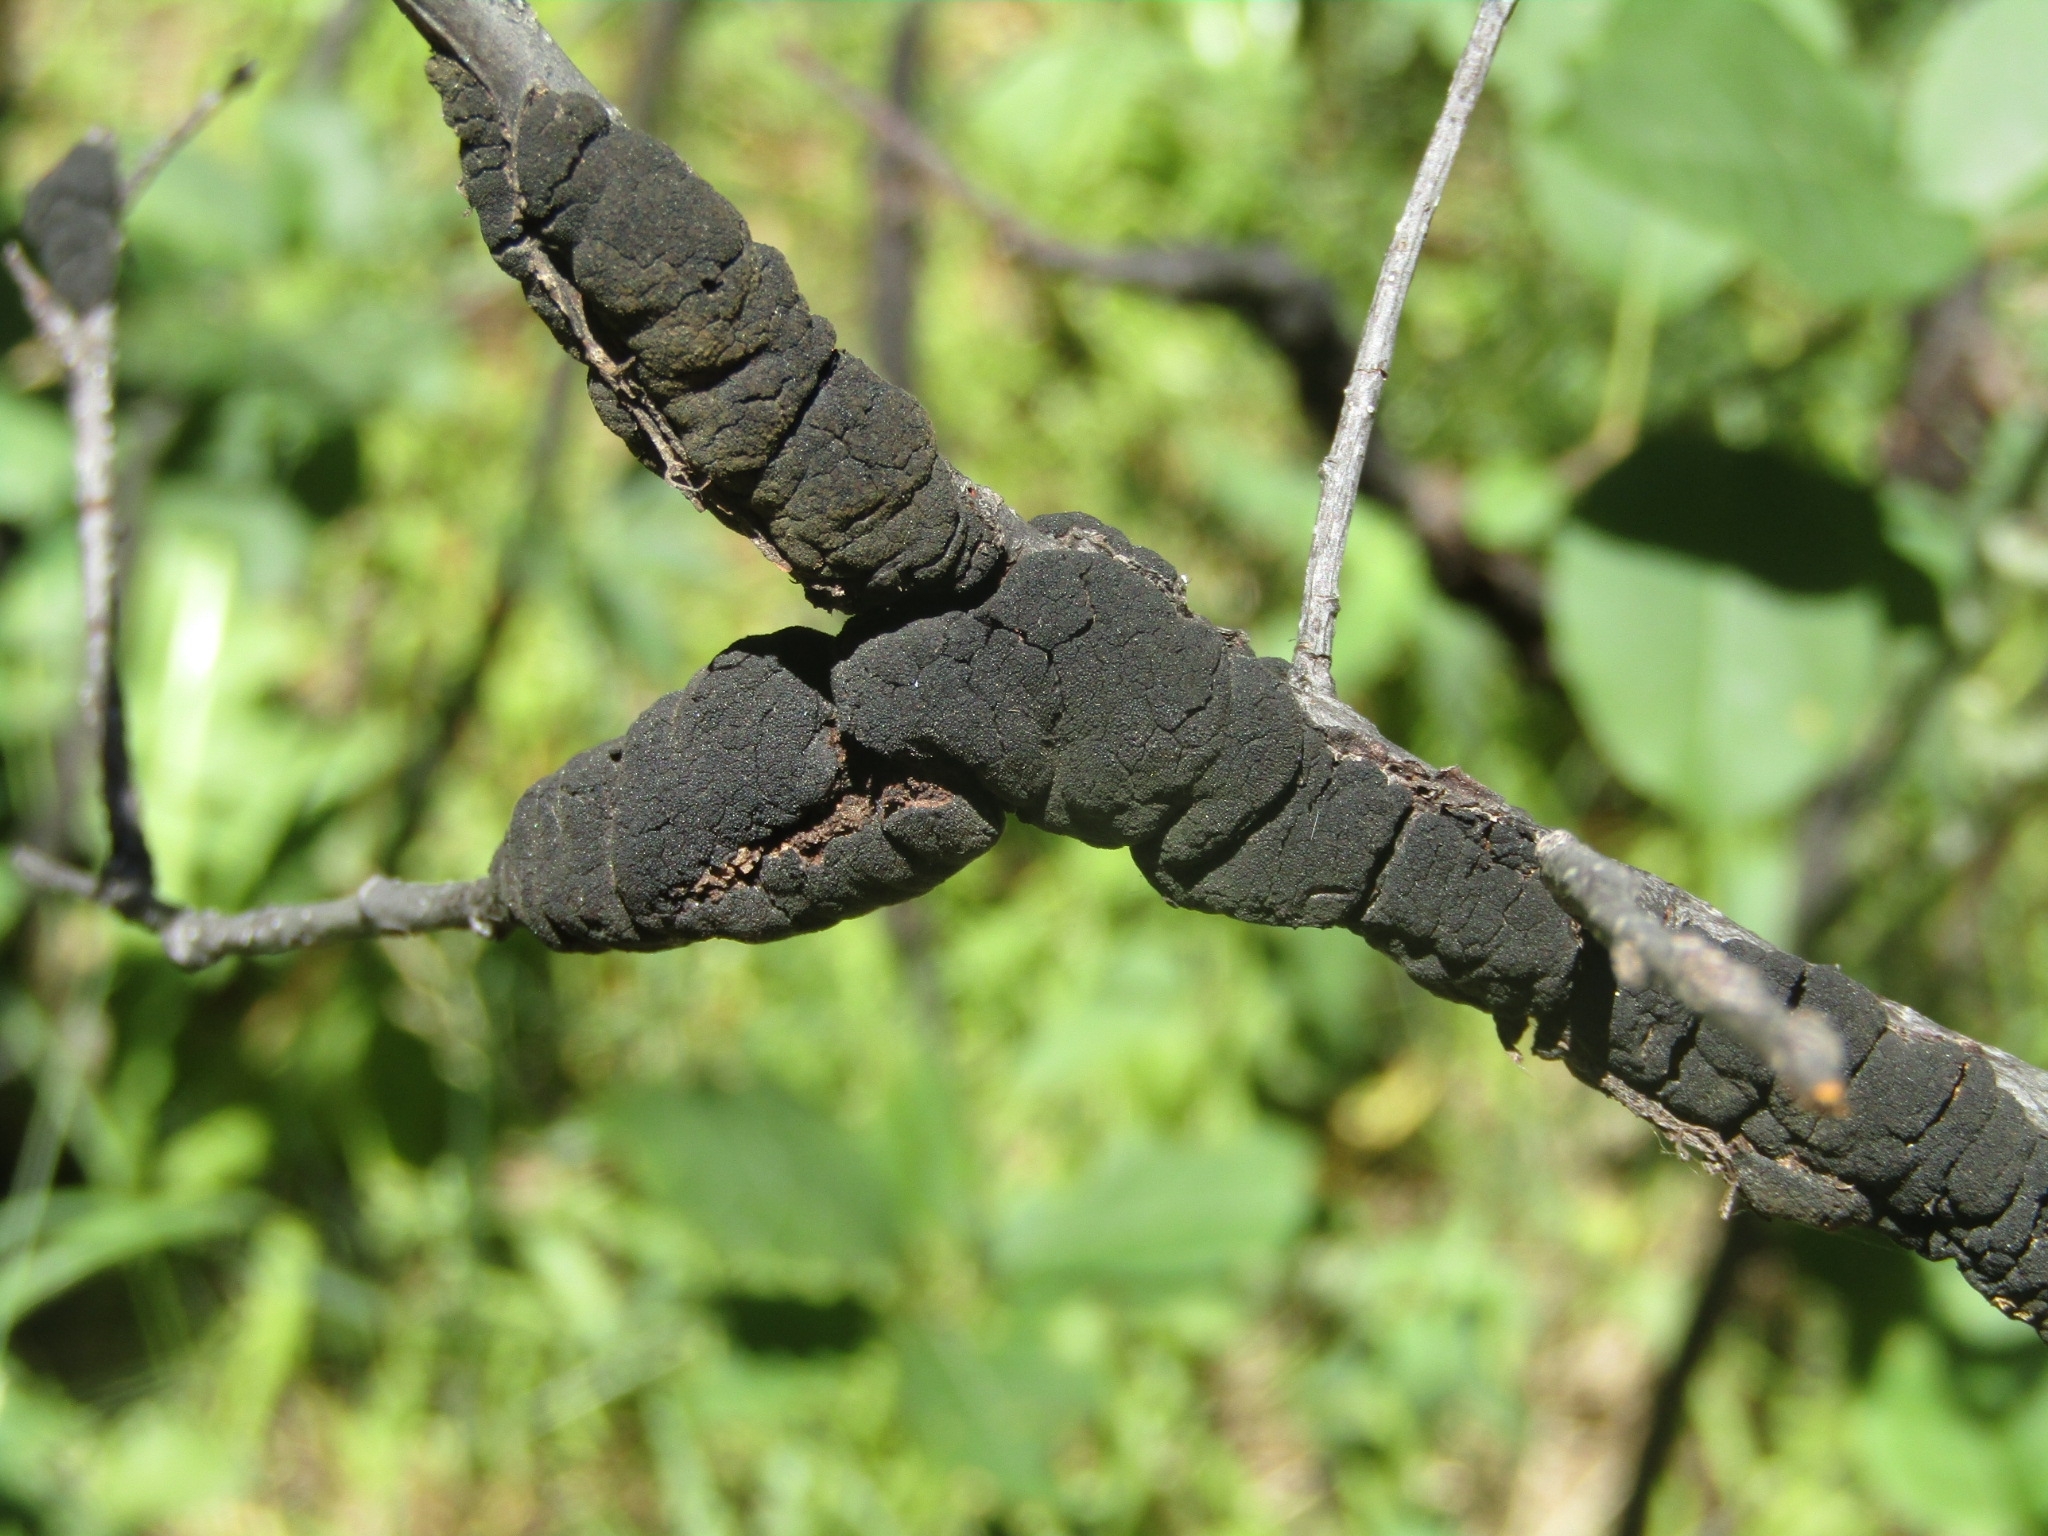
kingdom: Fungi
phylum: Ascomycota
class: Dothideomycetes
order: Venturiales
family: Venturiaceae
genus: Apiosporina
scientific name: Apiosporina morbosa
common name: Black knot
